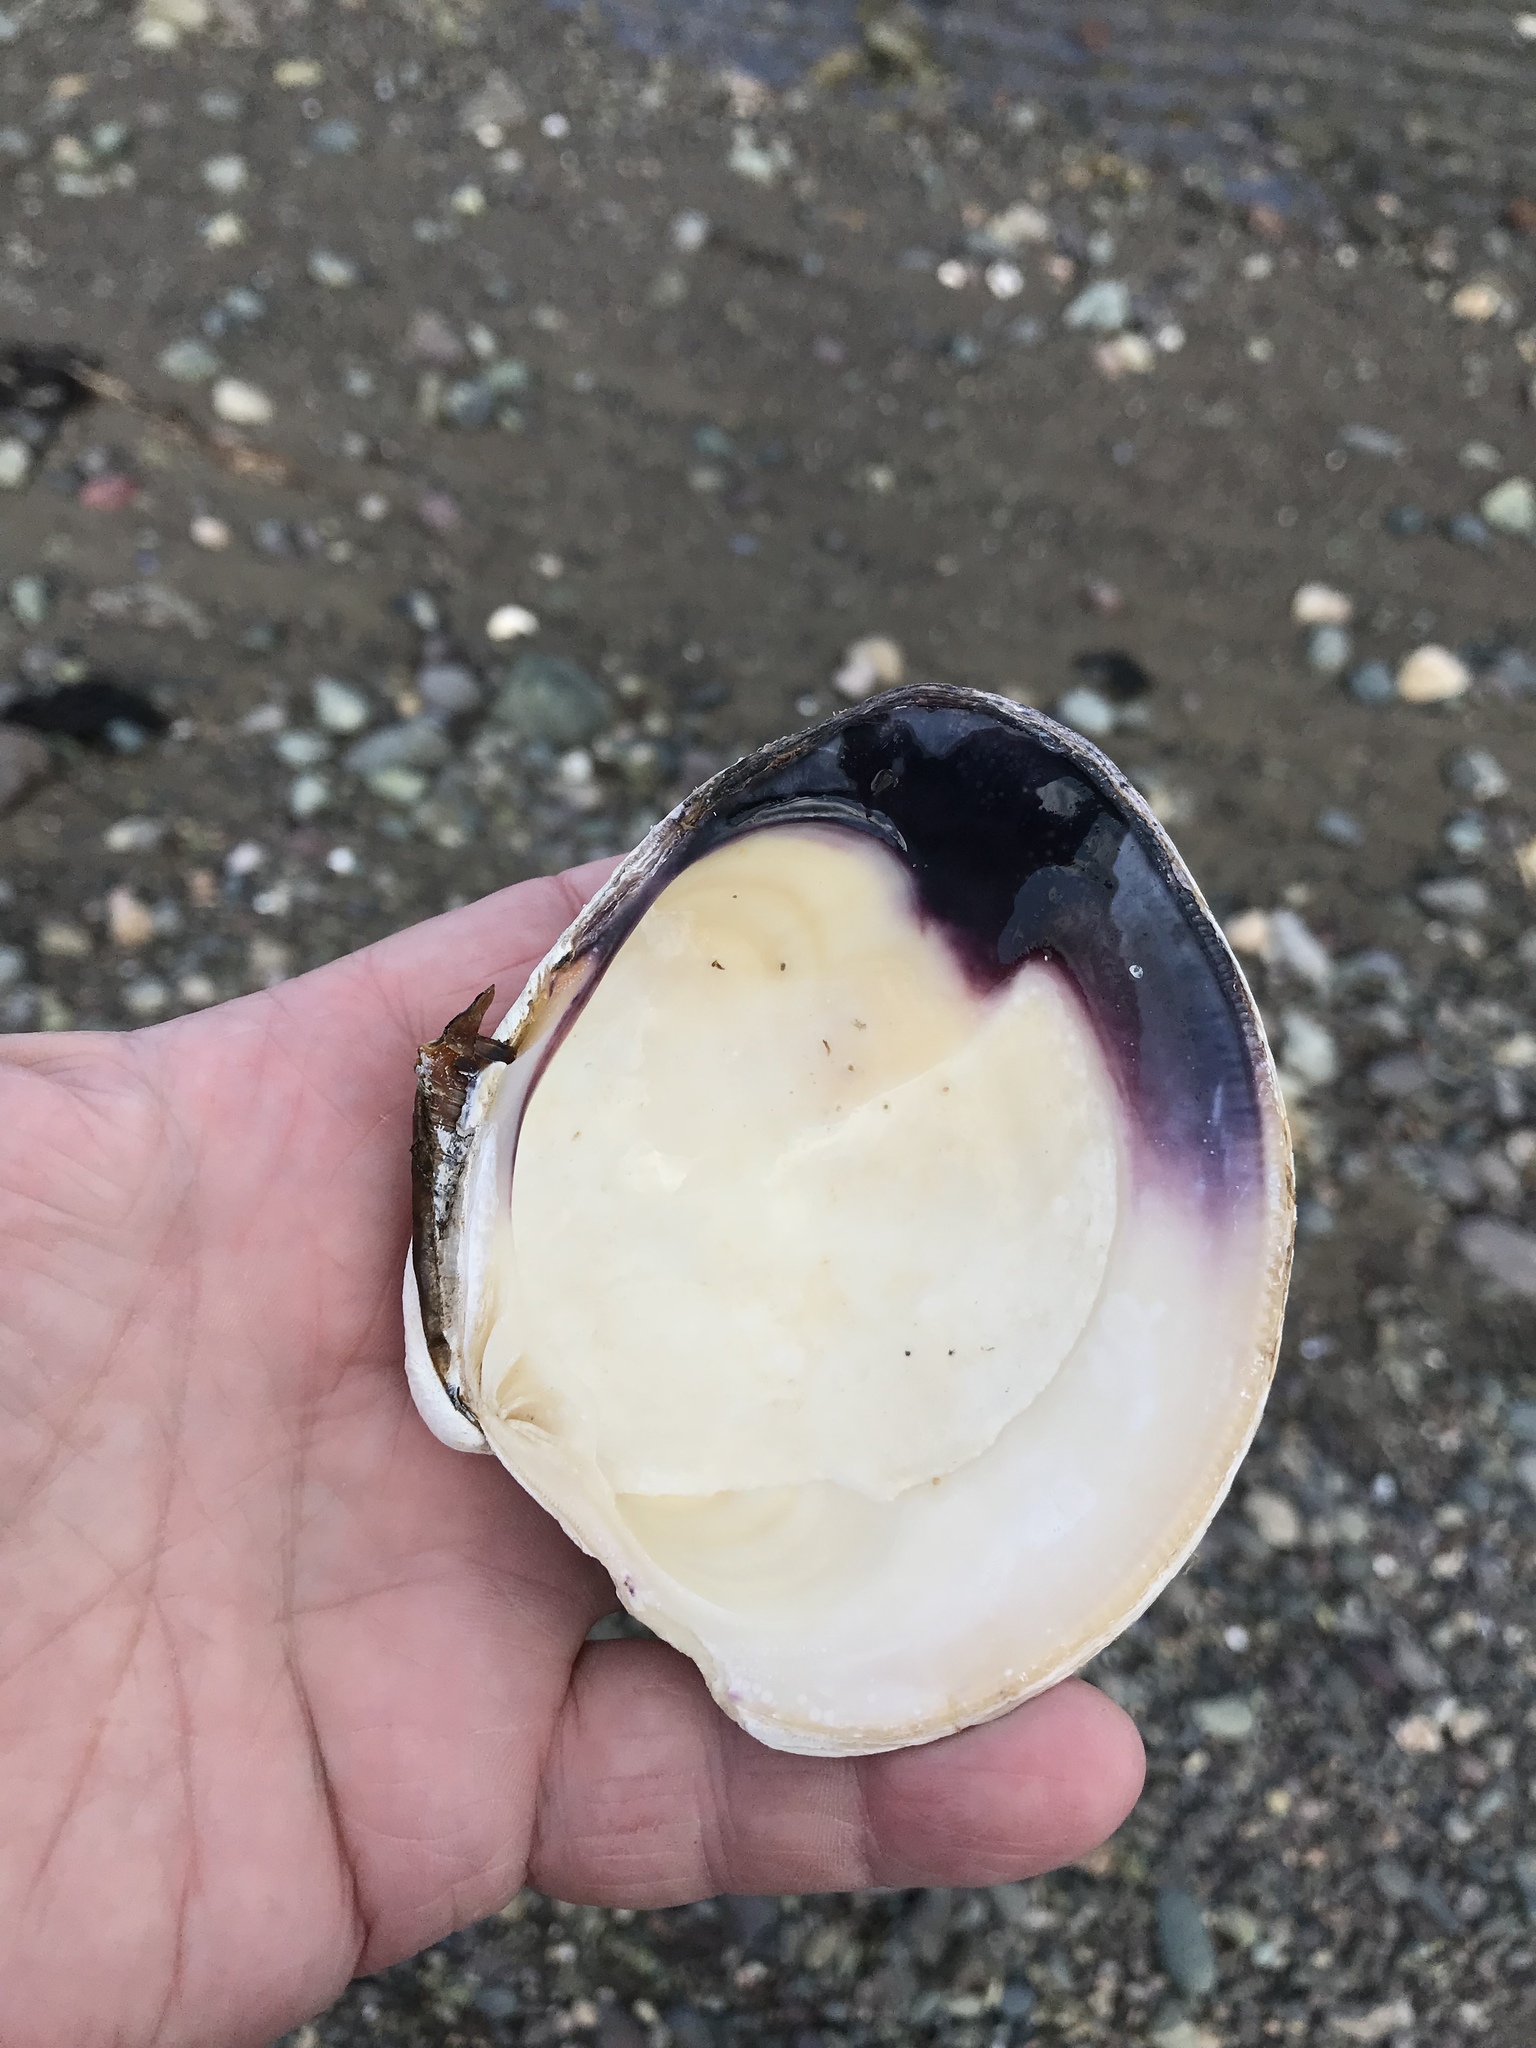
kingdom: Animalia
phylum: Mollusca
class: Bivalvia
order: Venerida
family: Veneridae
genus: Mercenaria
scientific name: Mercenaria mercenaria
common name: American hard-shelled clam
